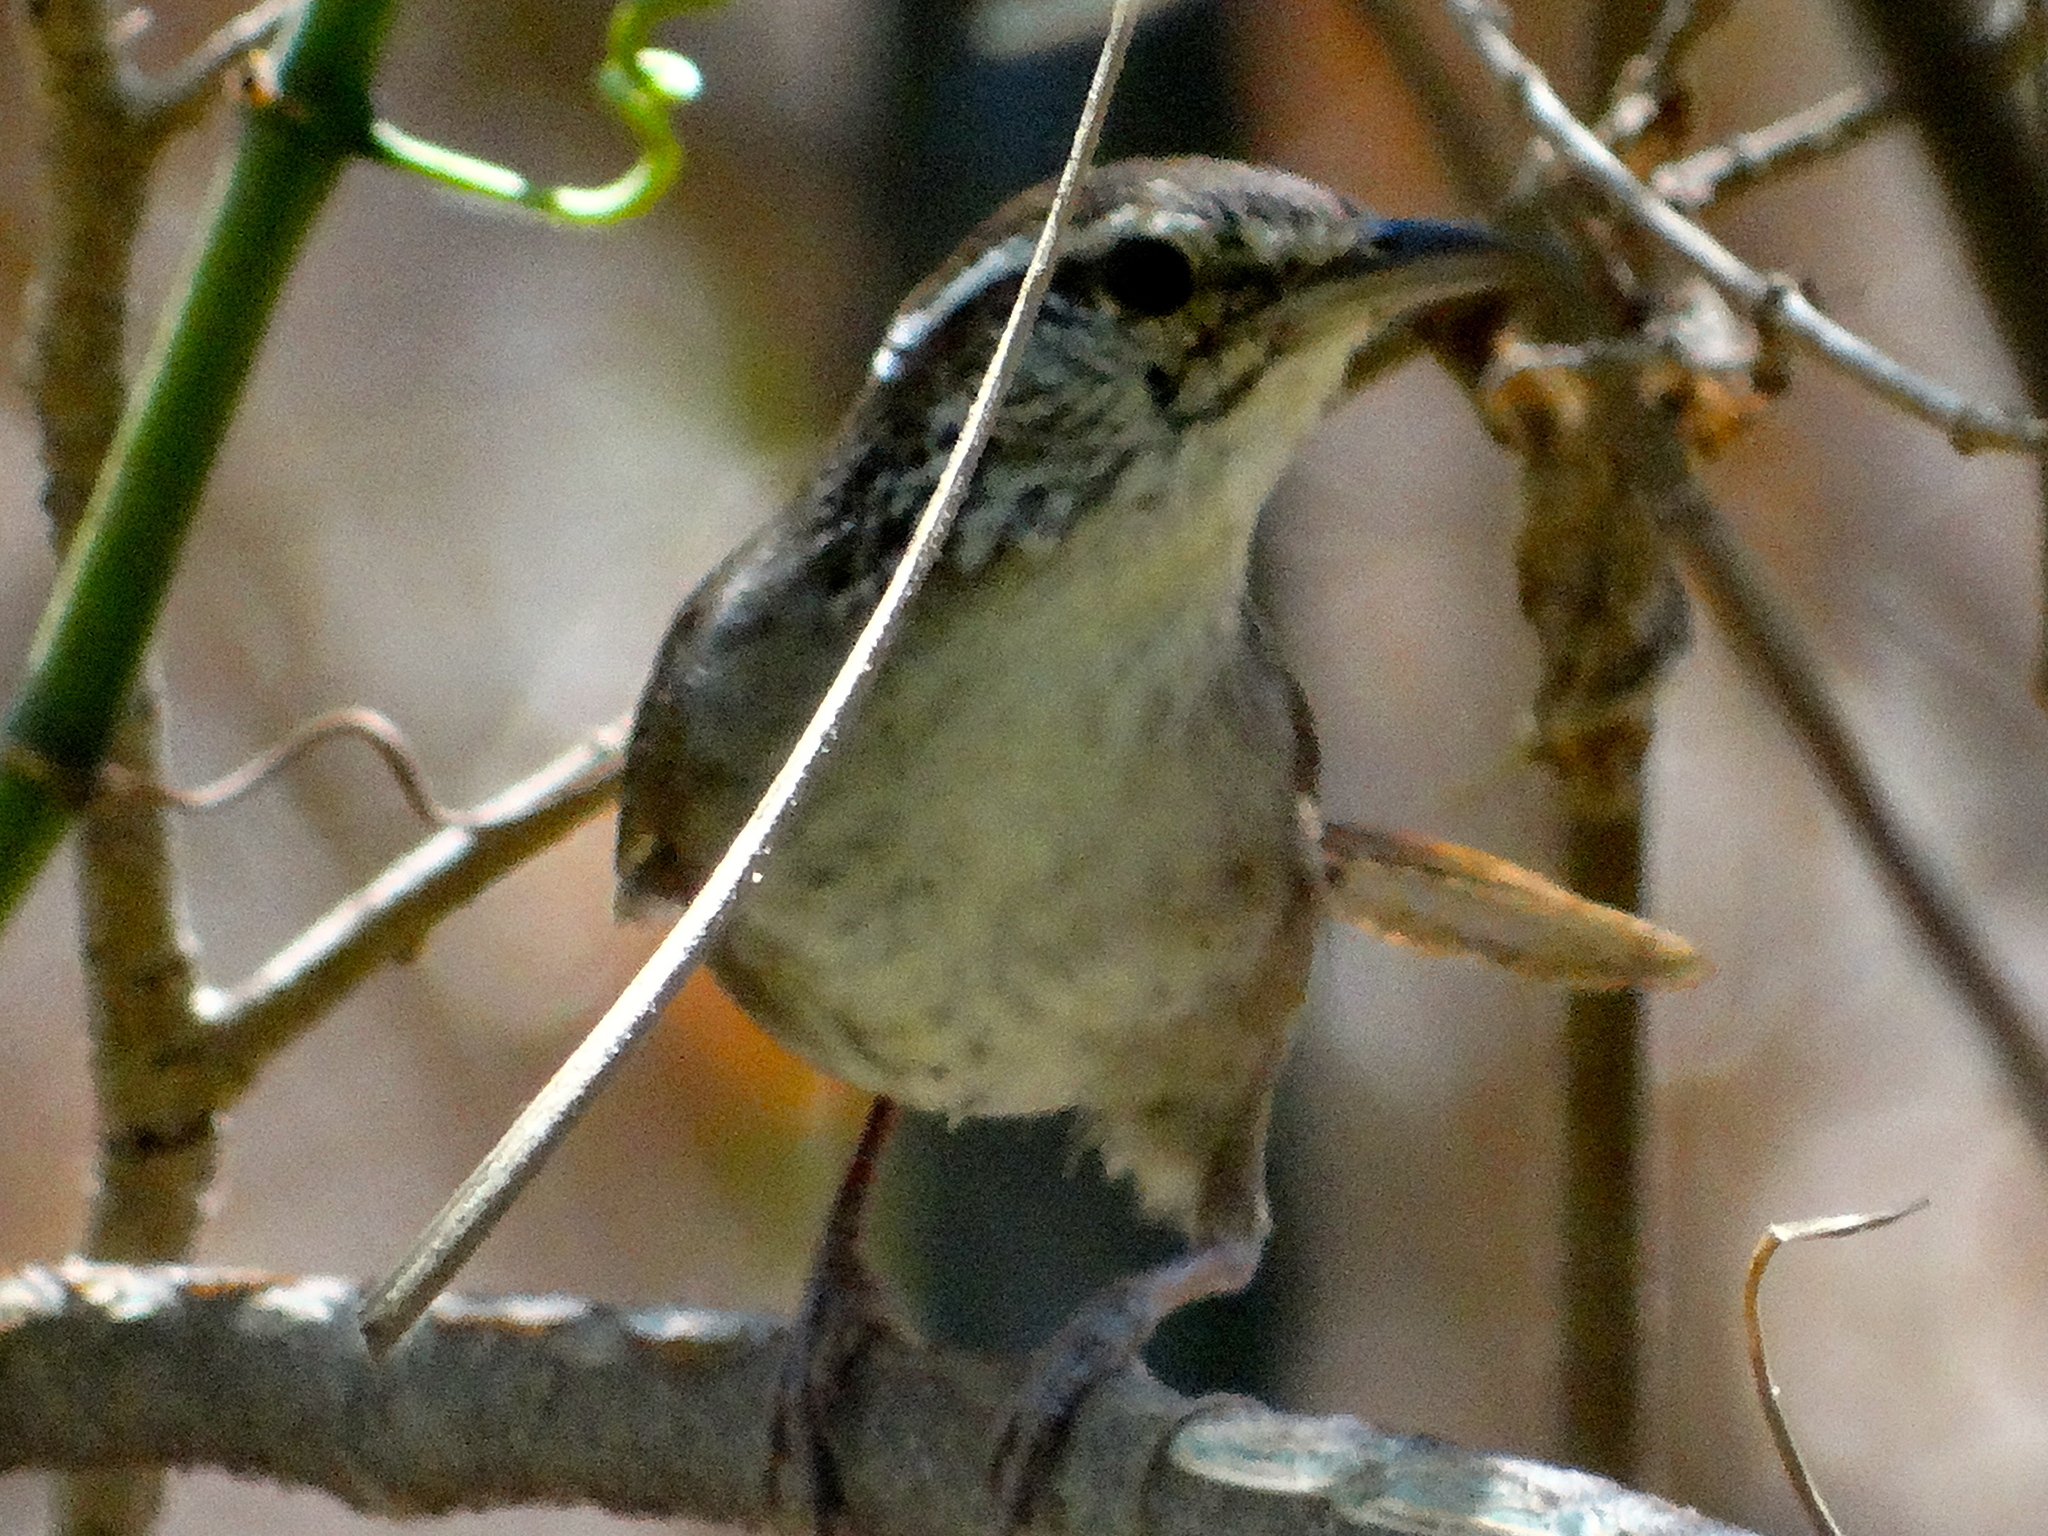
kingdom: Animalia
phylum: Chordata
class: Aves
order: Passeriformes
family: Troglodytidae
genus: Thryophilus
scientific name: Thryophilus sinaloa
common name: Sinaloa wren
